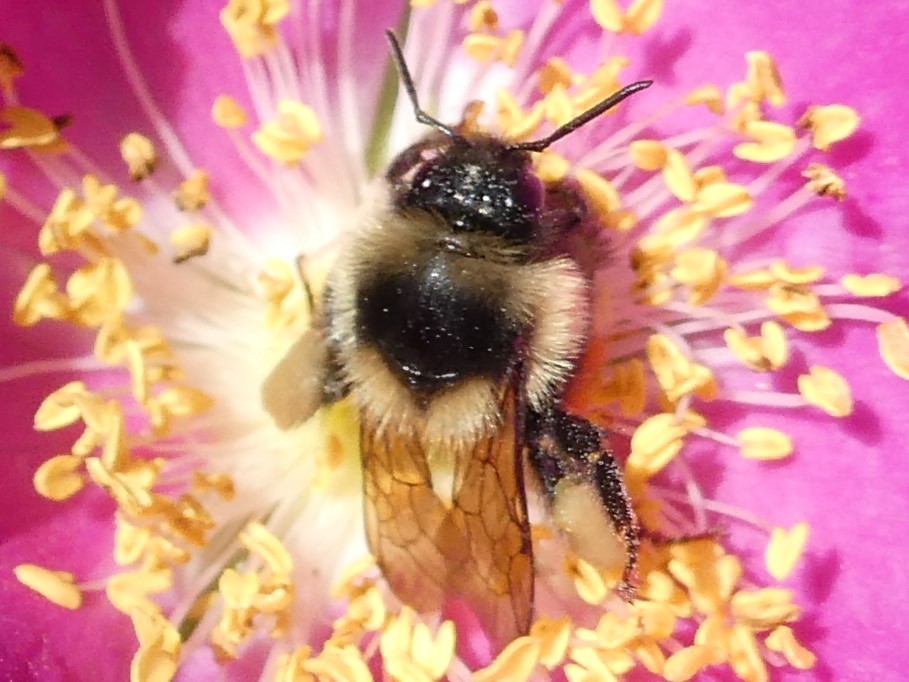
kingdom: Animalia
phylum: Arthropoda
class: Insecta
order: Hymenoptera
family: Apidae
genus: Bombus
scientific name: Bombus ternarius
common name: Tri-colored bumble bee
